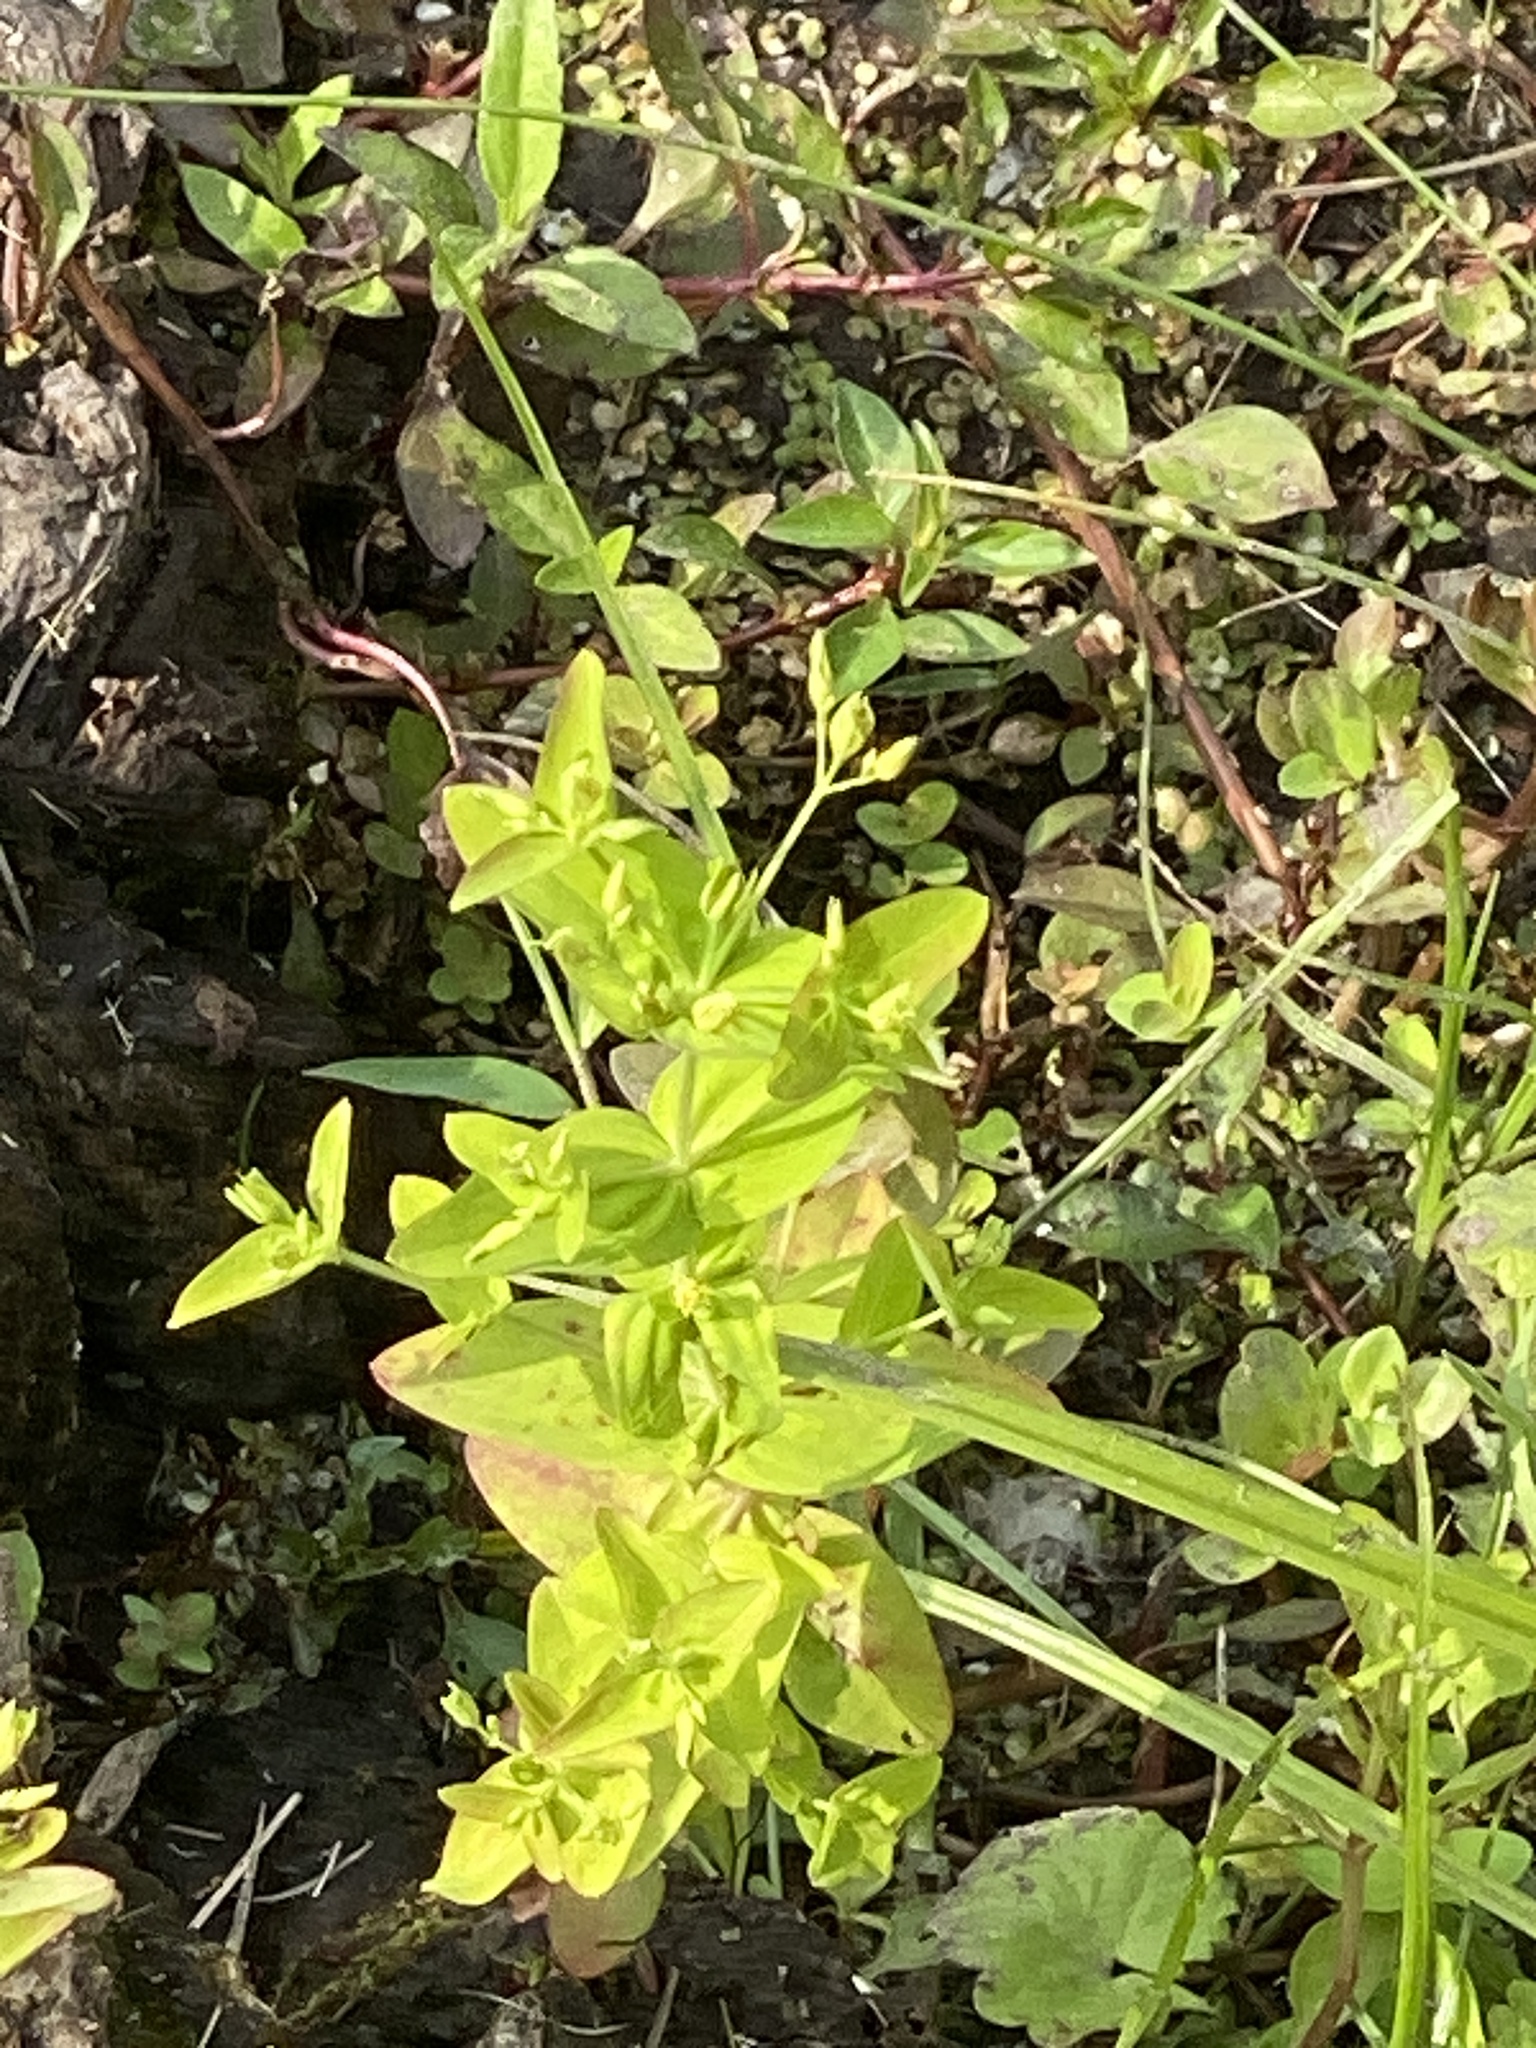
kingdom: Plantae
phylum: Tracheophyta
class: Magnoliopsida
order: Malpighiales
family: Hypericaceae
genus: Hypericum
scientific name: Hypericum mutilum
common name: Dwarf st. john's-wort
